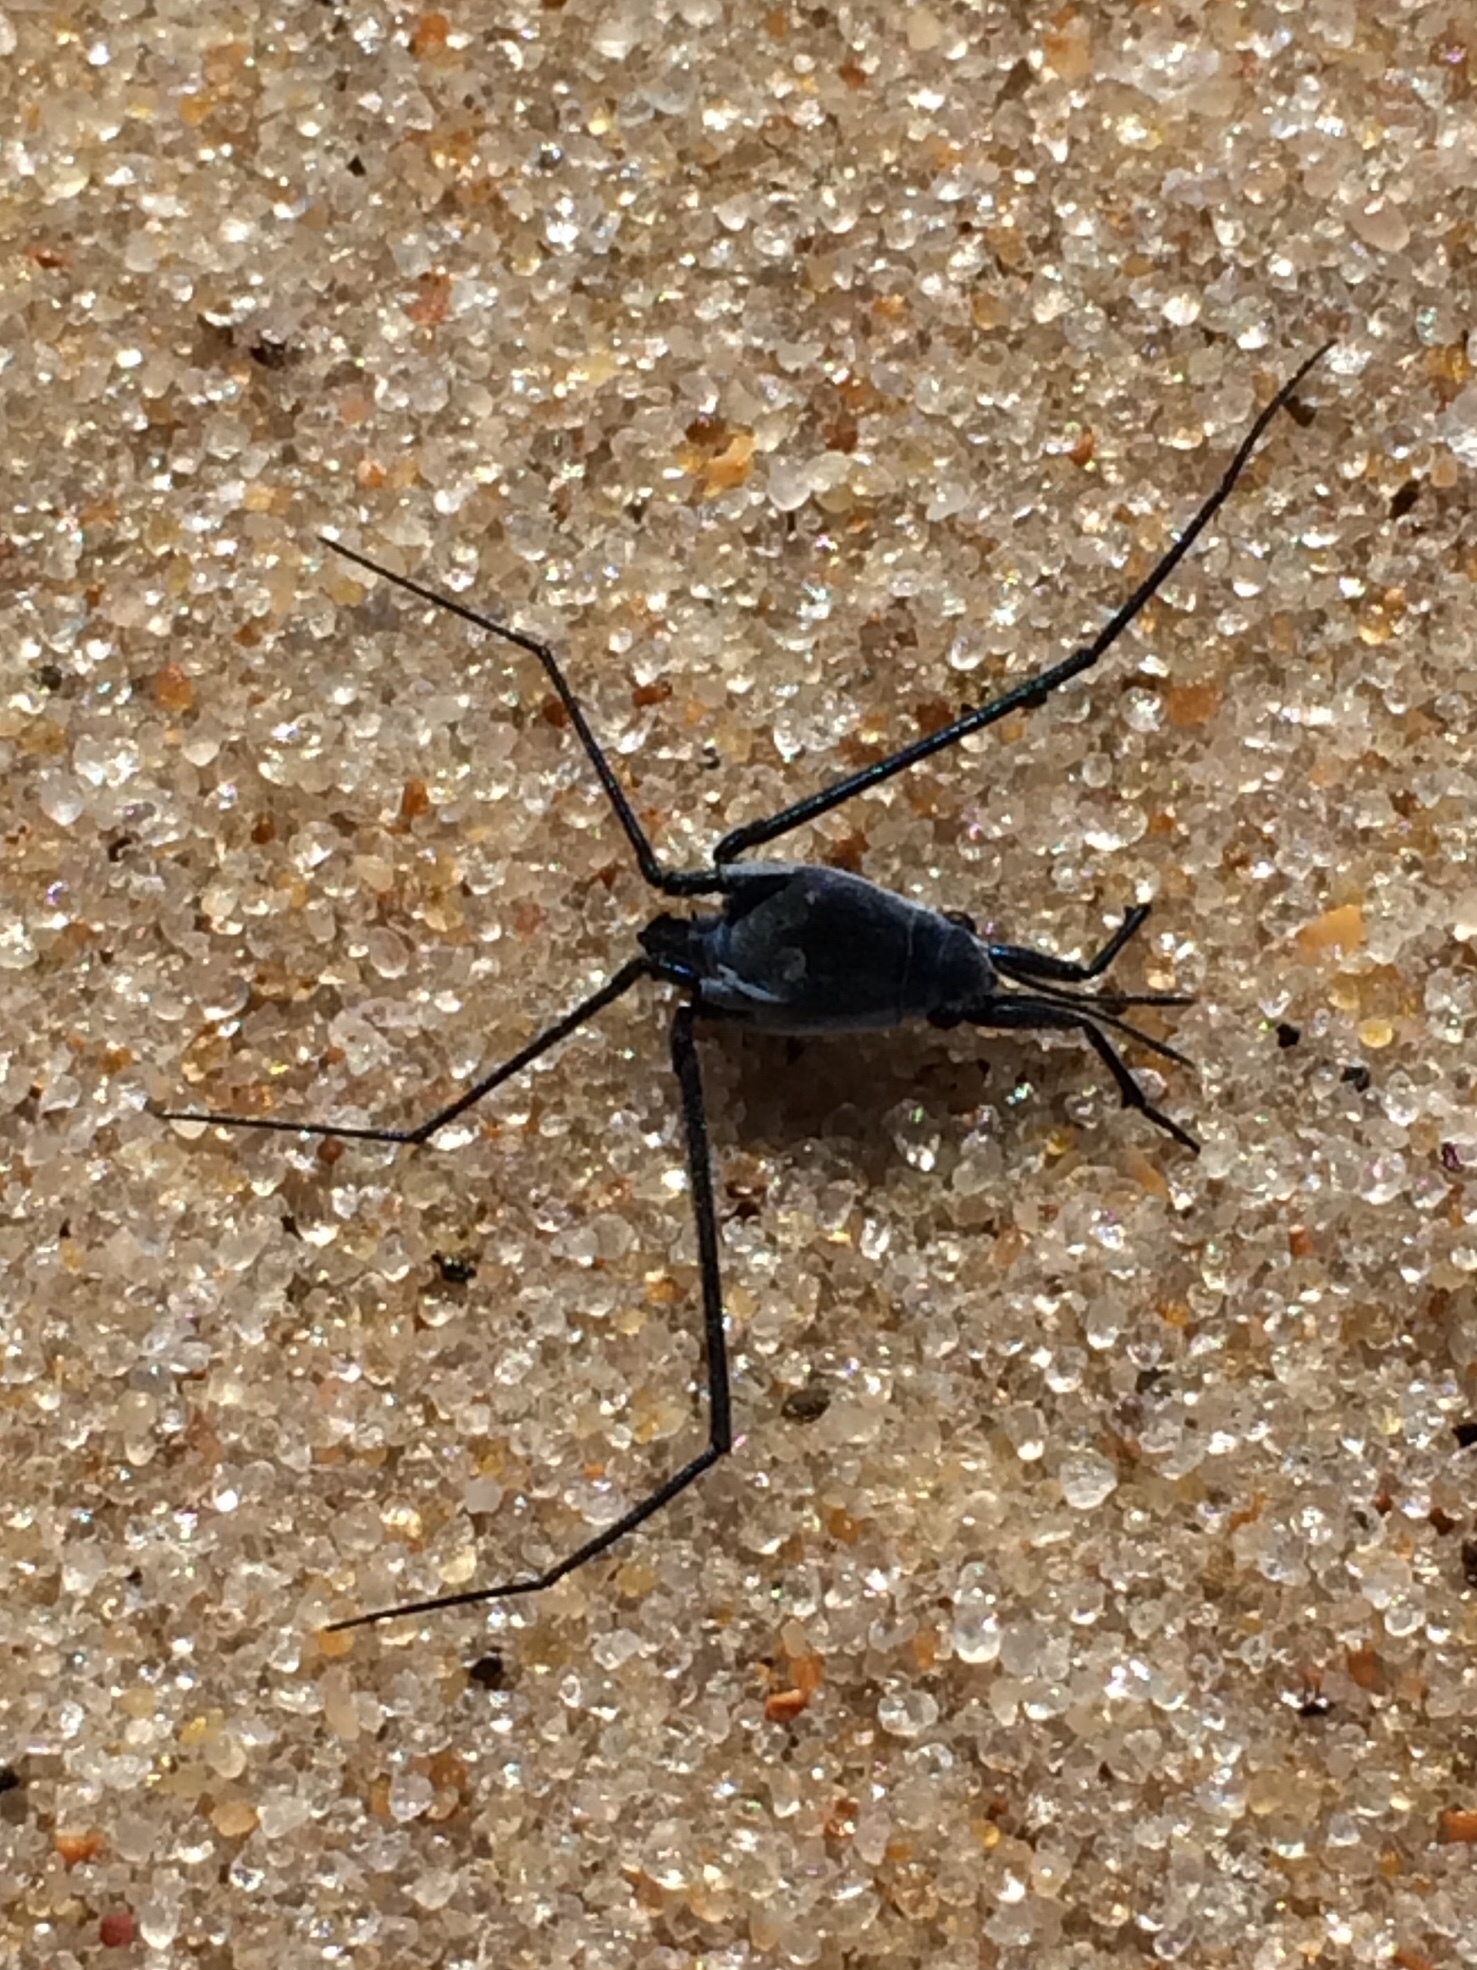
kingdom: Animalia
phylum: Arthropoda
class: Insecta
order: Hemiptera
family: Gerridae
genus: Halobates
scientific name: Halobates micans
